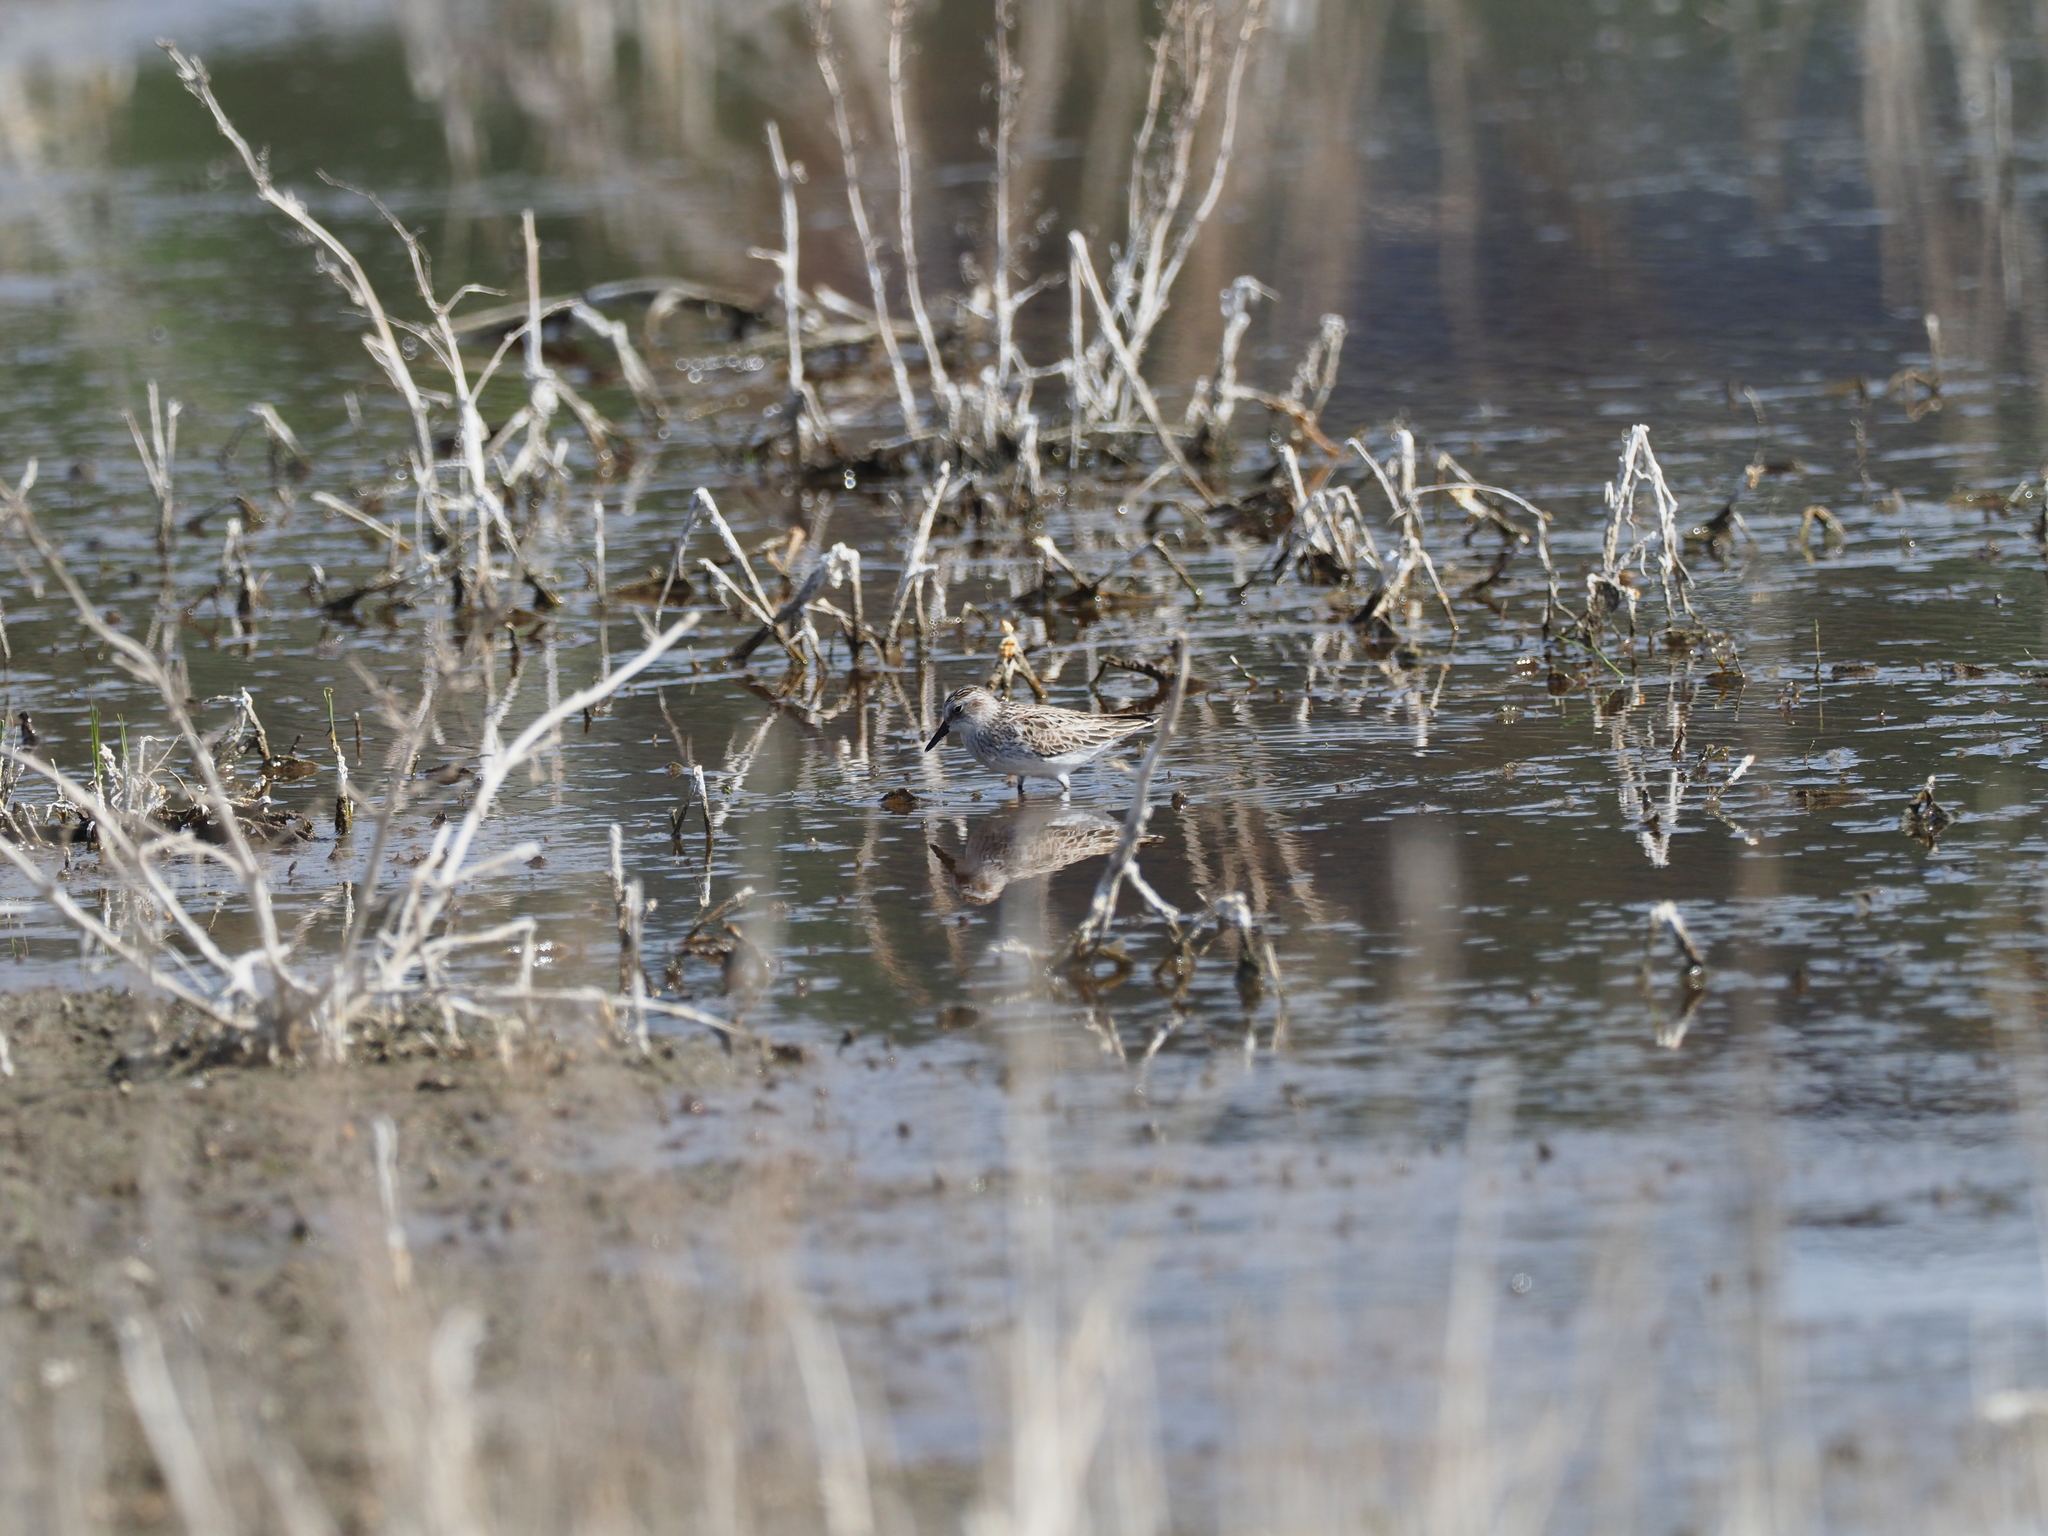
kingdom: Animalia
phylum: Chordata
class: Aves
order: Charadriiformes
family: Scolopacidae
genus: Calidris
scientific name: Calidris pusilla
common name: Semipalmated sandpiper
